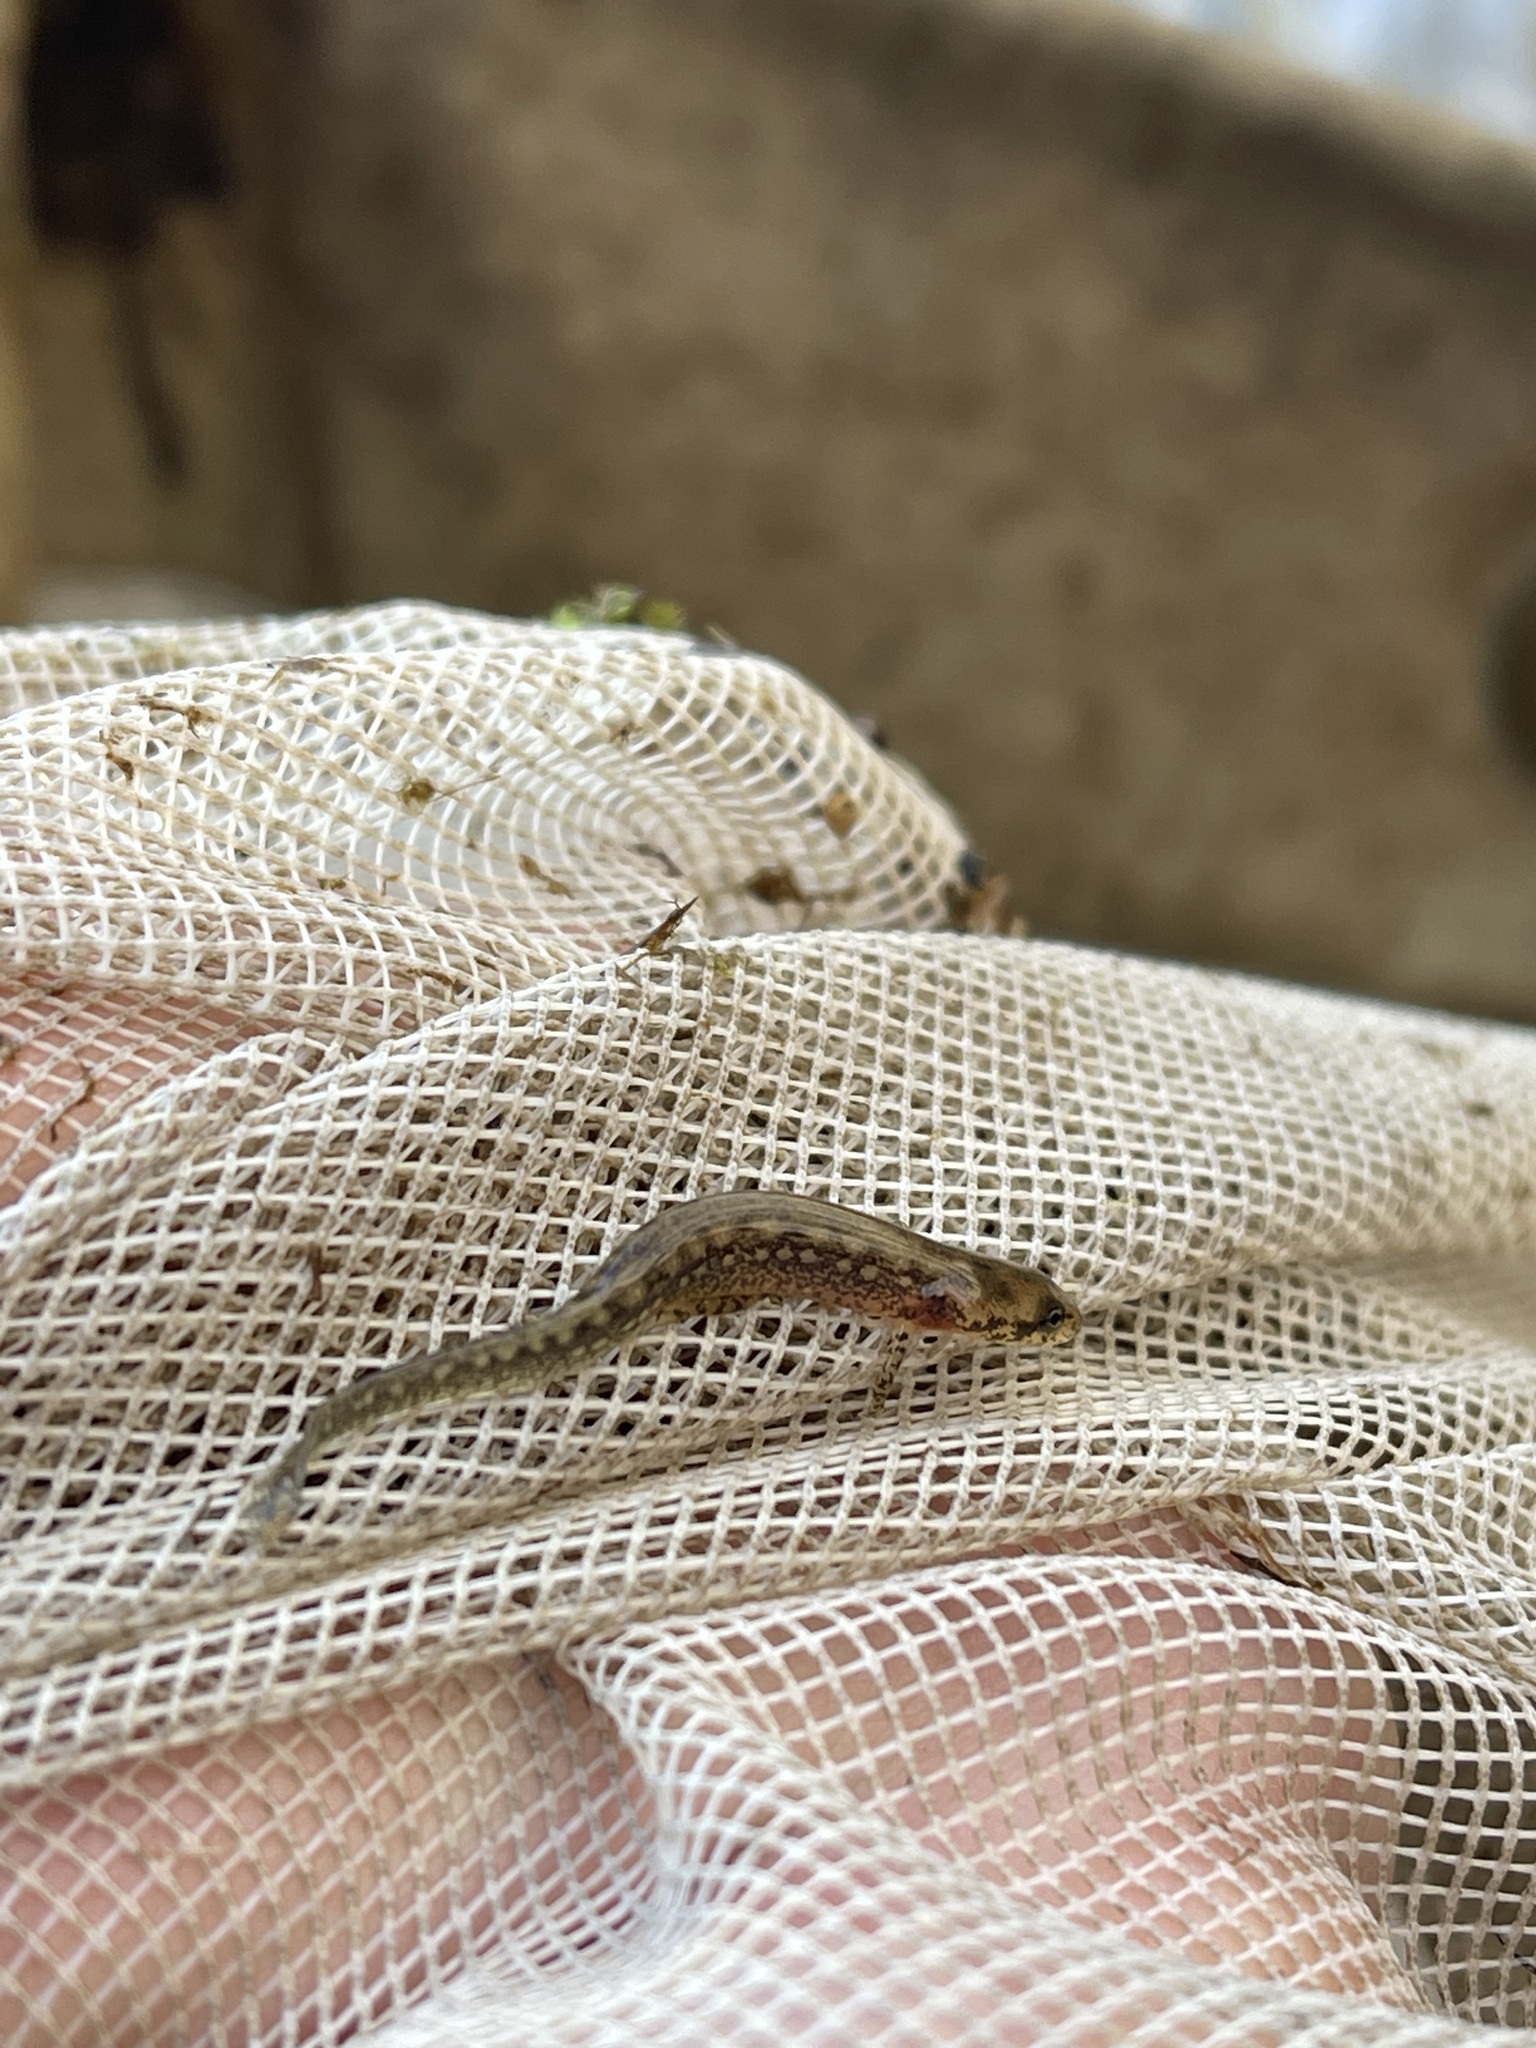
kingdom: Animalia
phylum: Chordata
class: Amphibia
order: Caudata
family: Plethodontidae
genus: Eurycea
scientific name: Eurycea cirrigera
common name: Southern two-lined salamander
